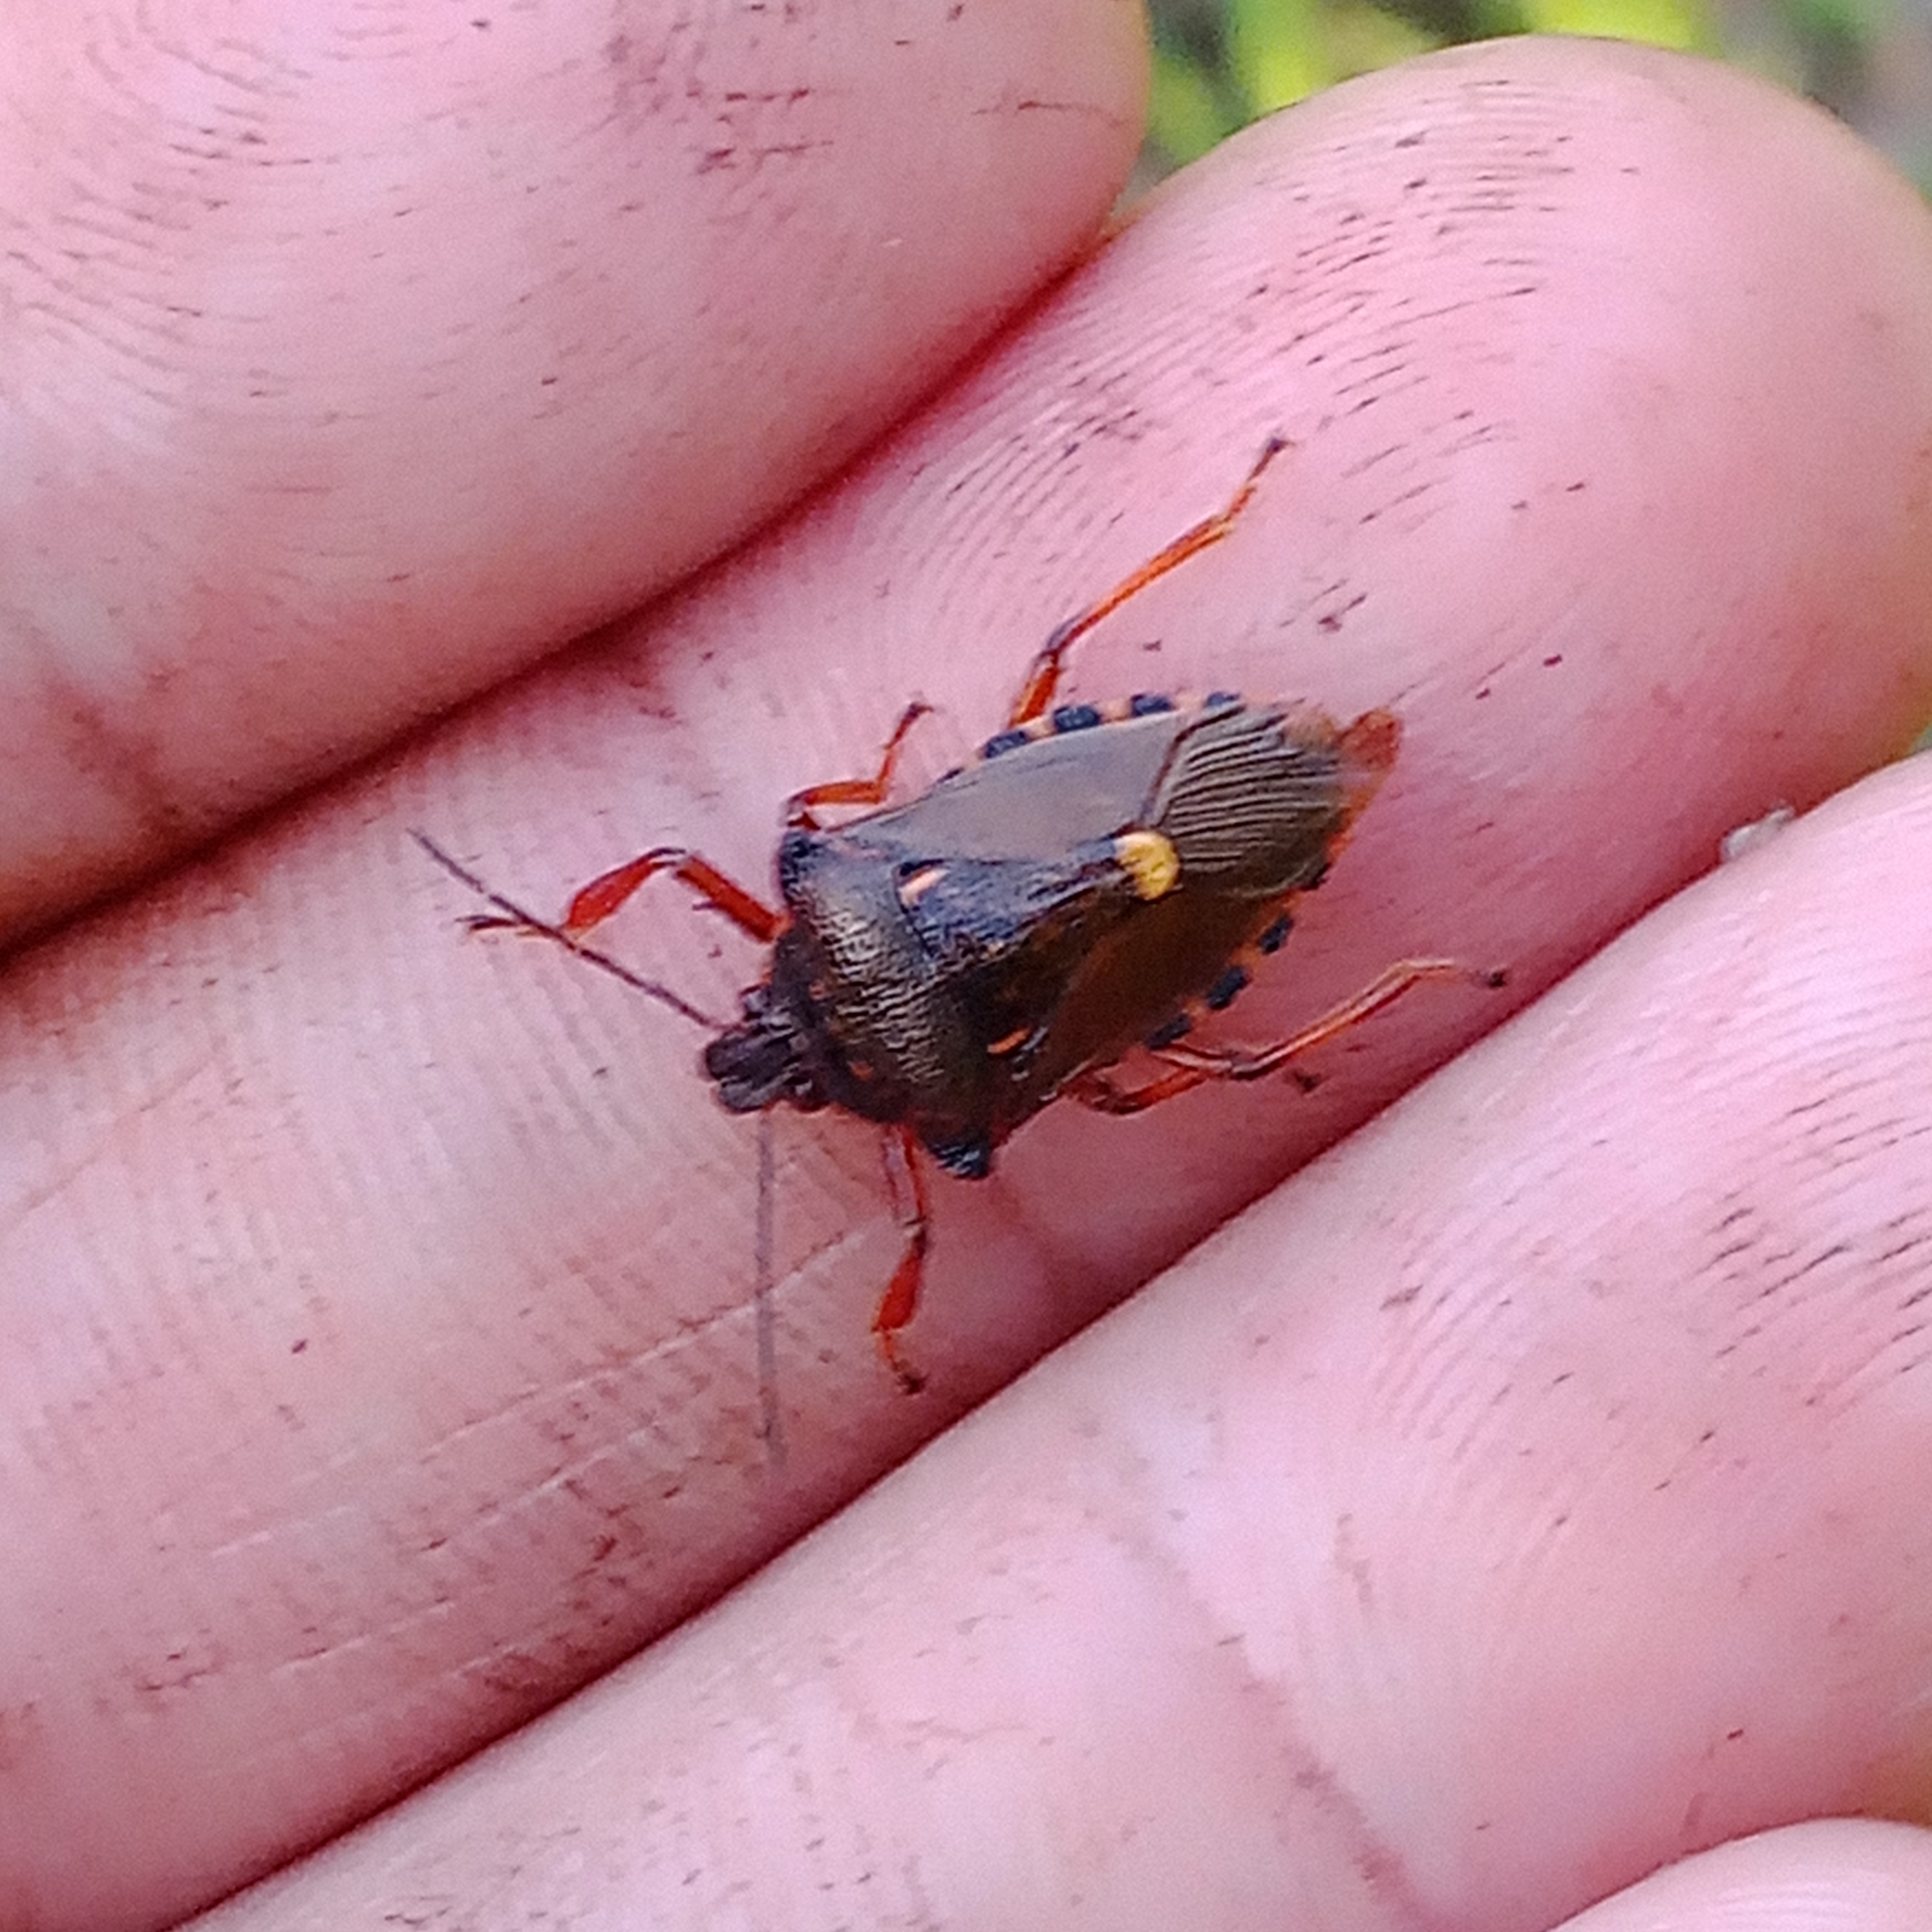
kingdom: Animalia
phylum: Arthropoda
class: Insecta
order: Hemiptera
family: Pentatomidae
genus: Pinthaeus
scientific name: Pinthaeus sanguinipes
